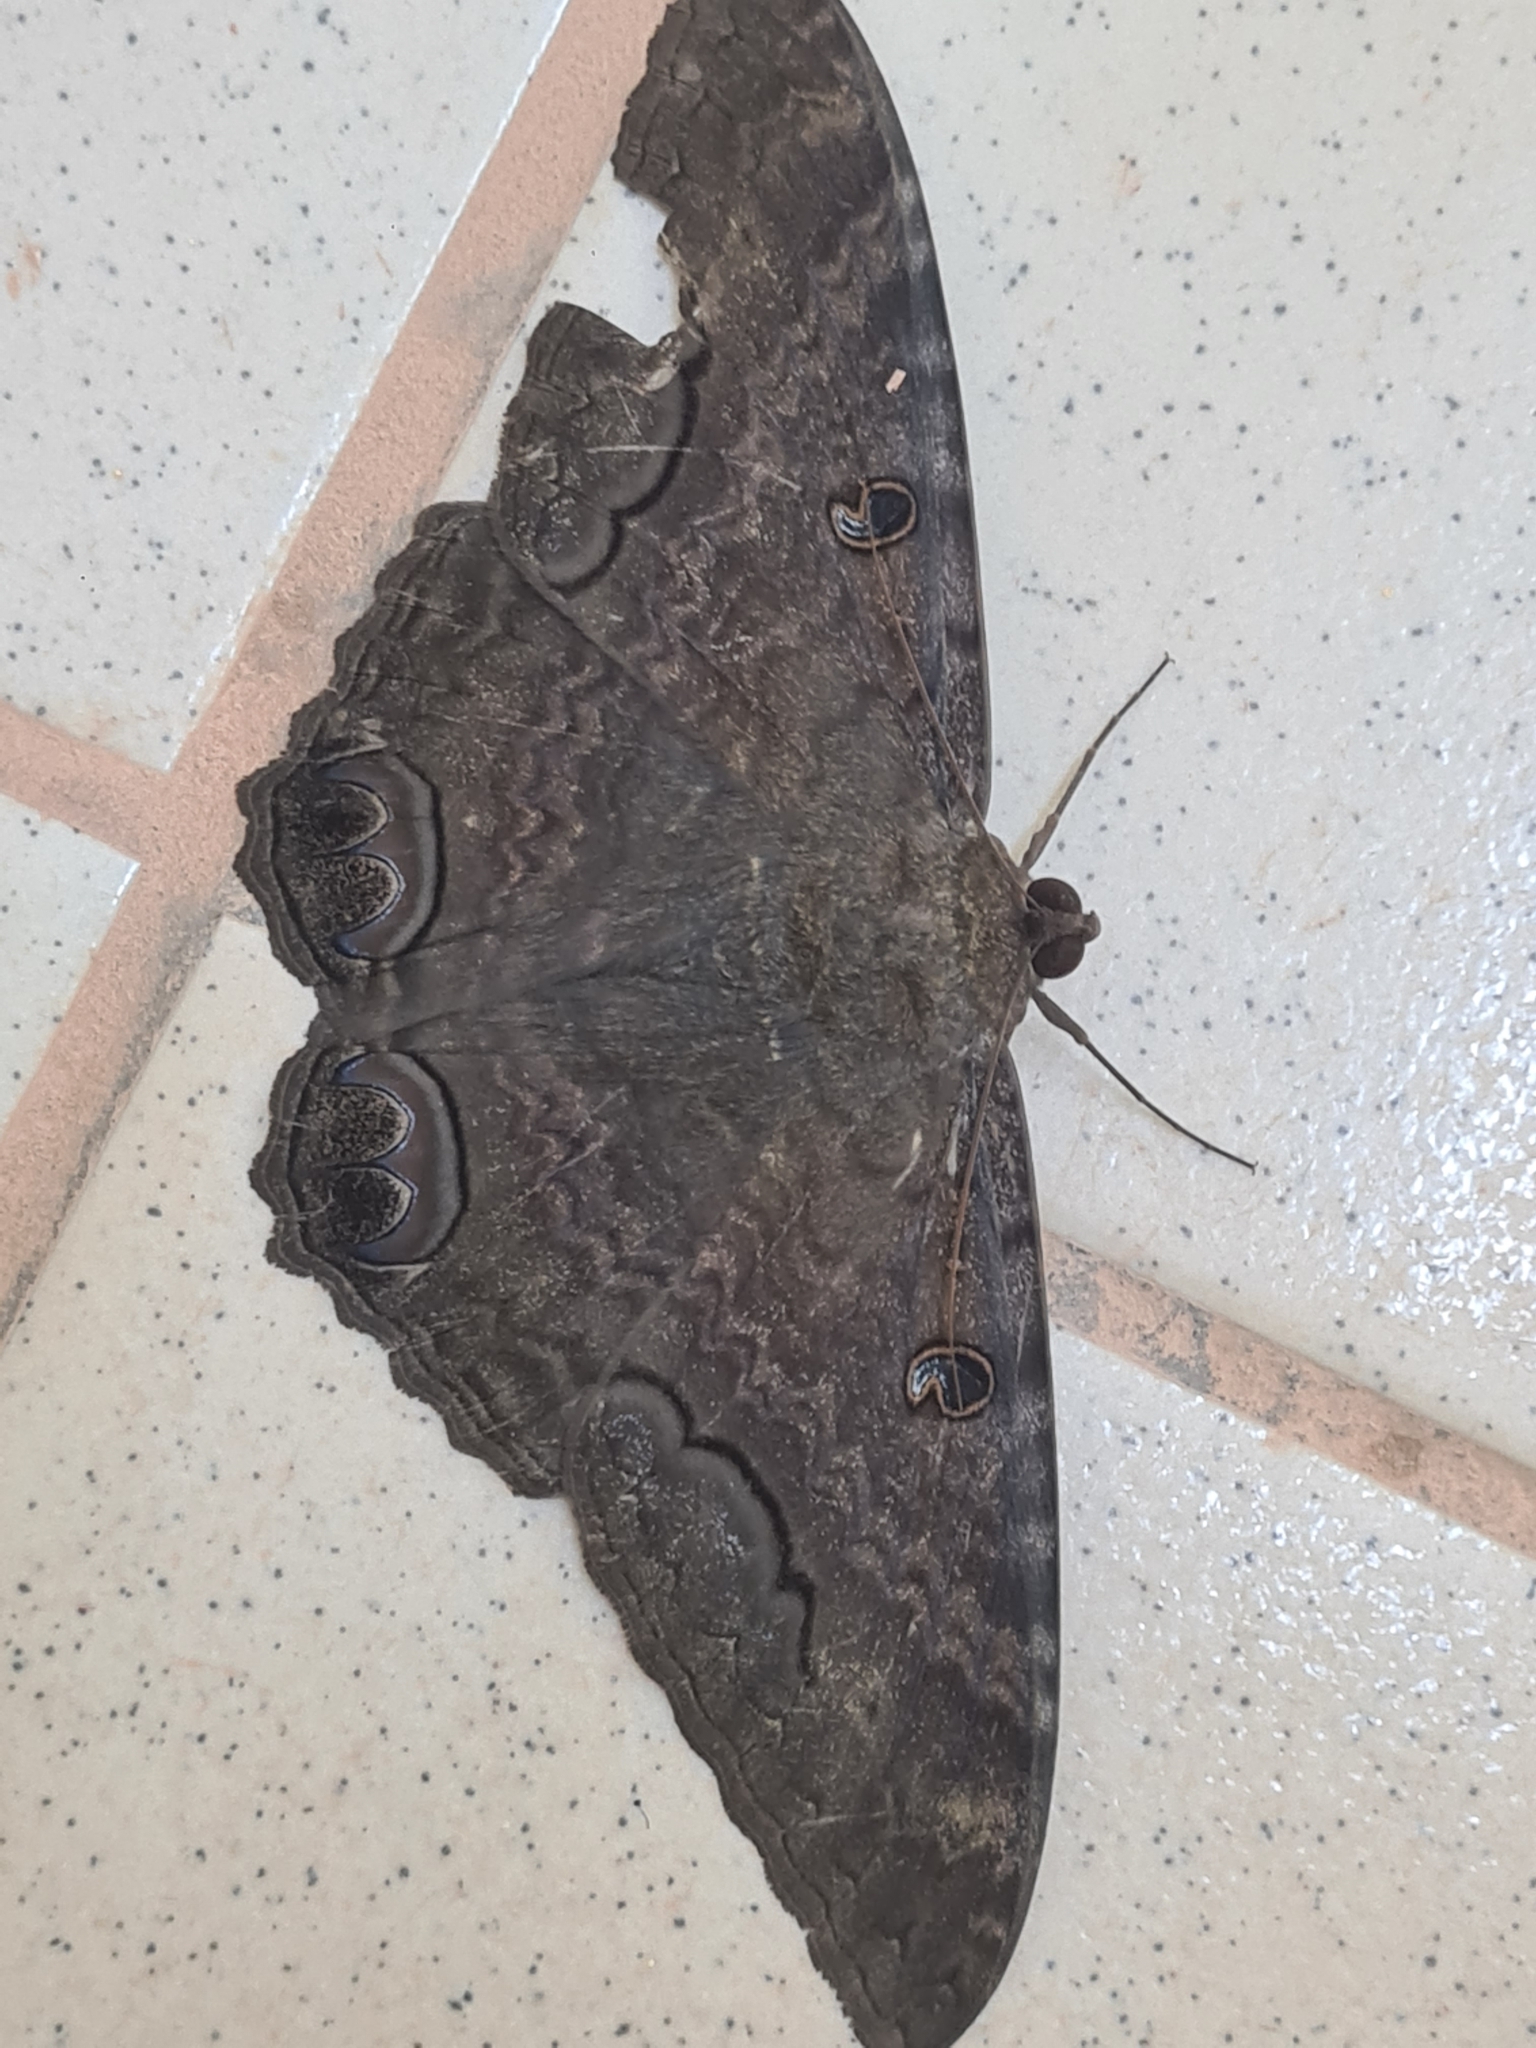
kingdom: Animalia
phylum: Arthropoda
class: Insecta
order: Lepidoptera
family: Erebidae
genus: Ascalapha
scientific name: Ascalapha odorata
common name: Black witch
